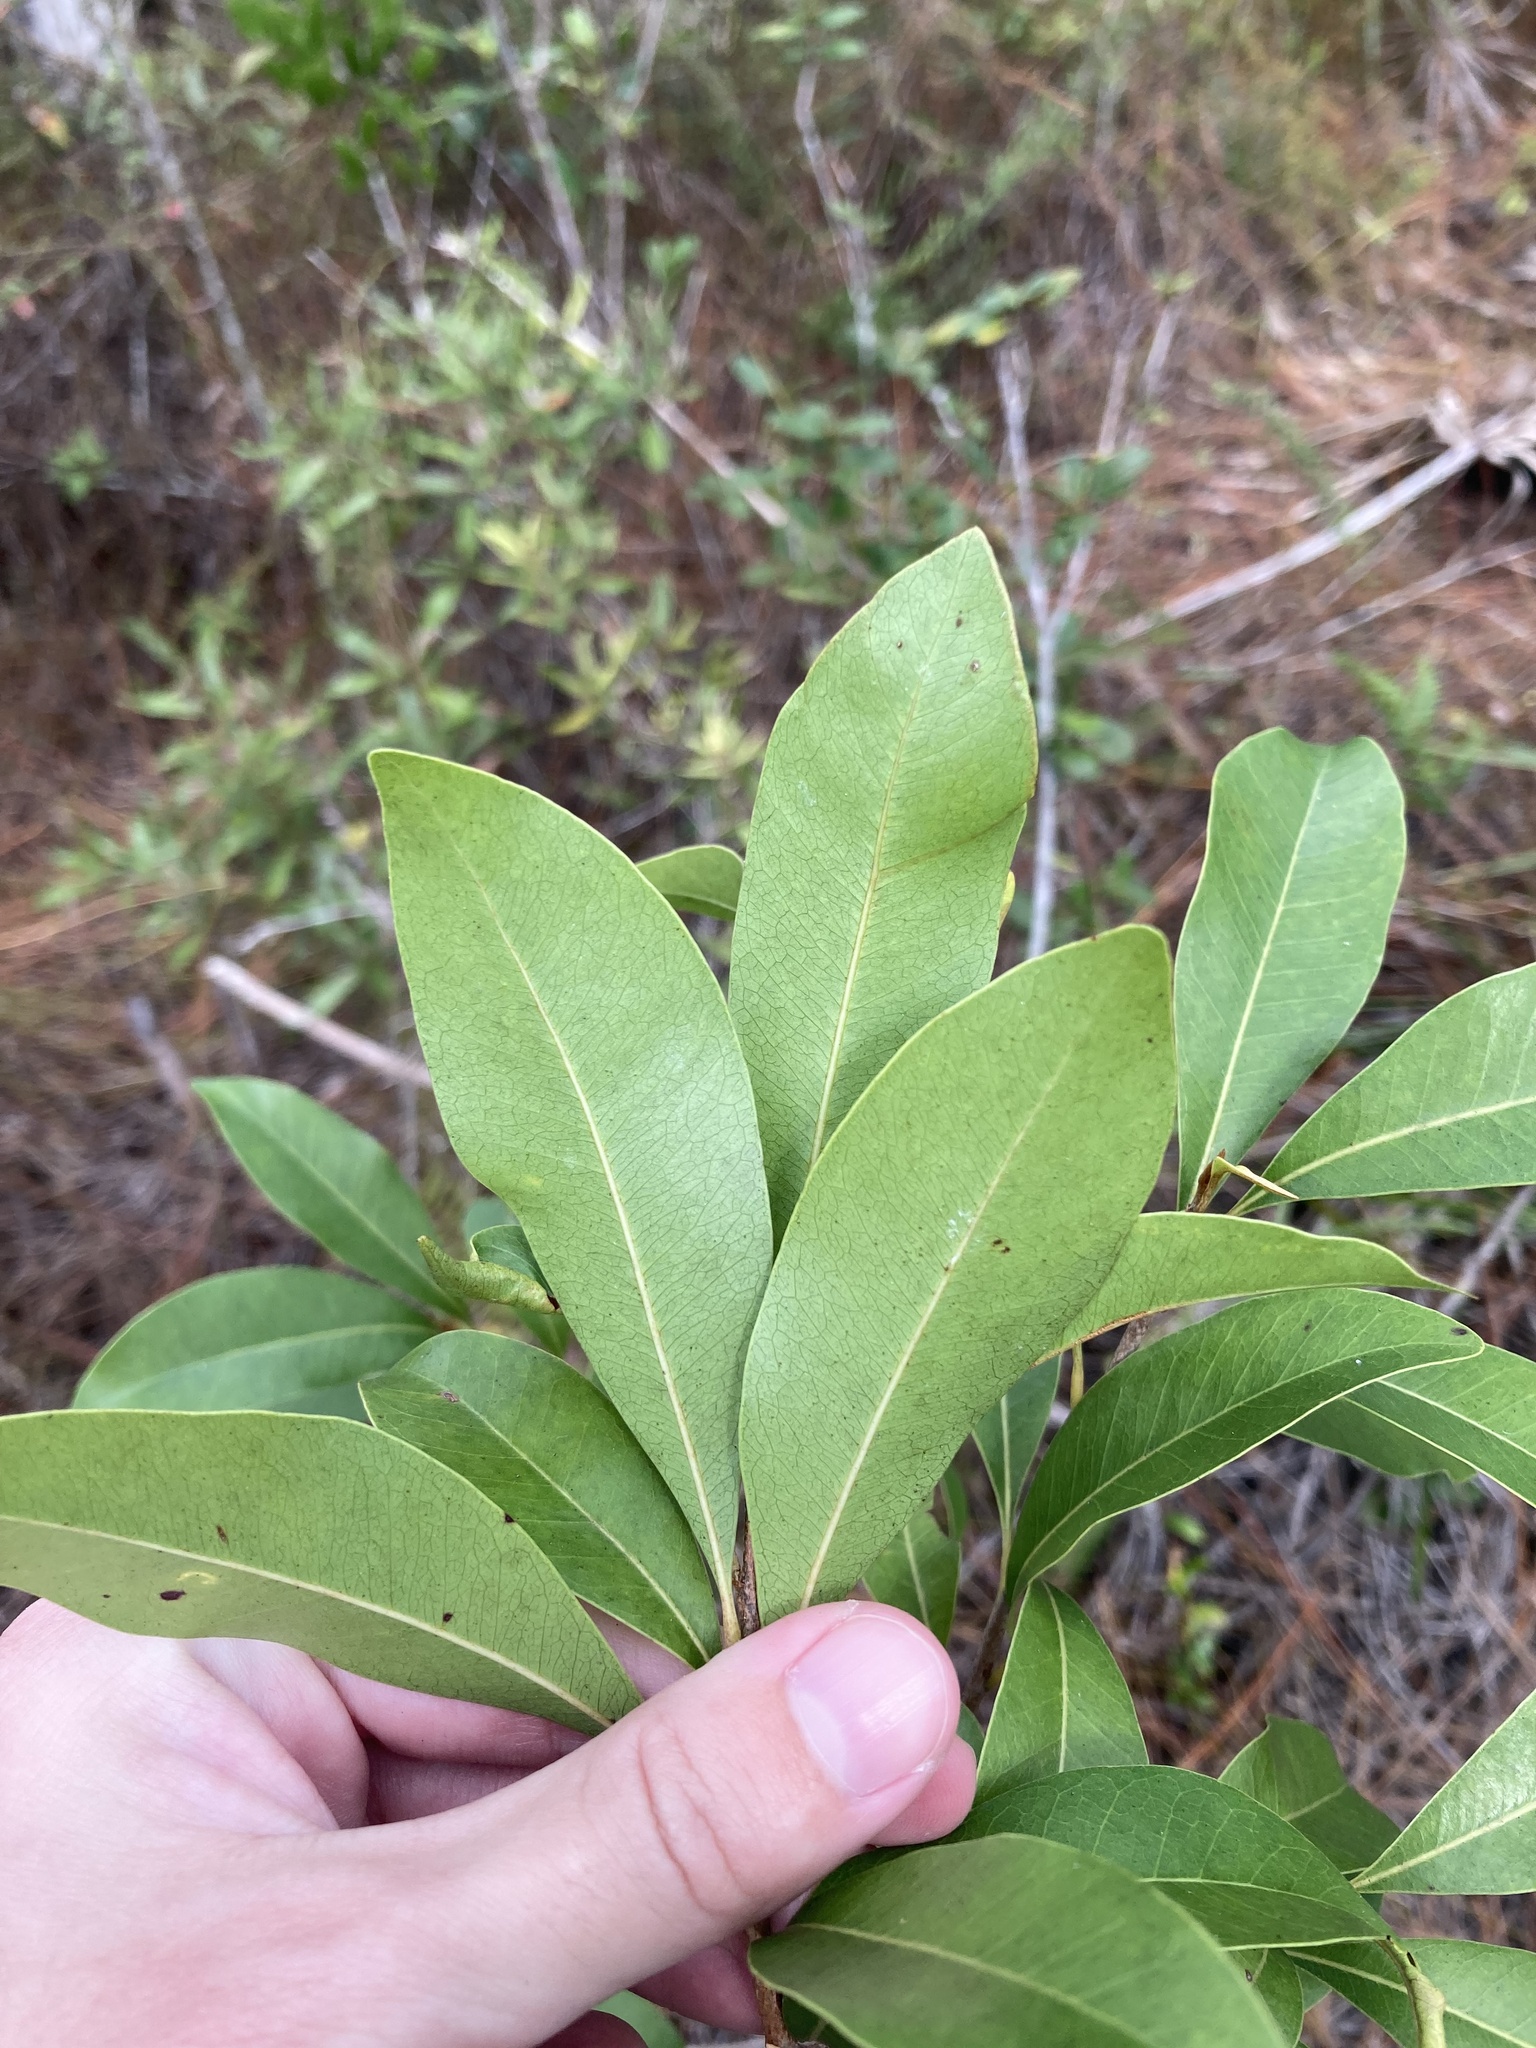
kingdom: Plantae
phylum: Tracheophyta
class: Magnoliopsida
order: Ericales
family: Sapotaceae
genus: Sideroxylon
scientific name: Sideroxylon salicifolium
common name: White bully
